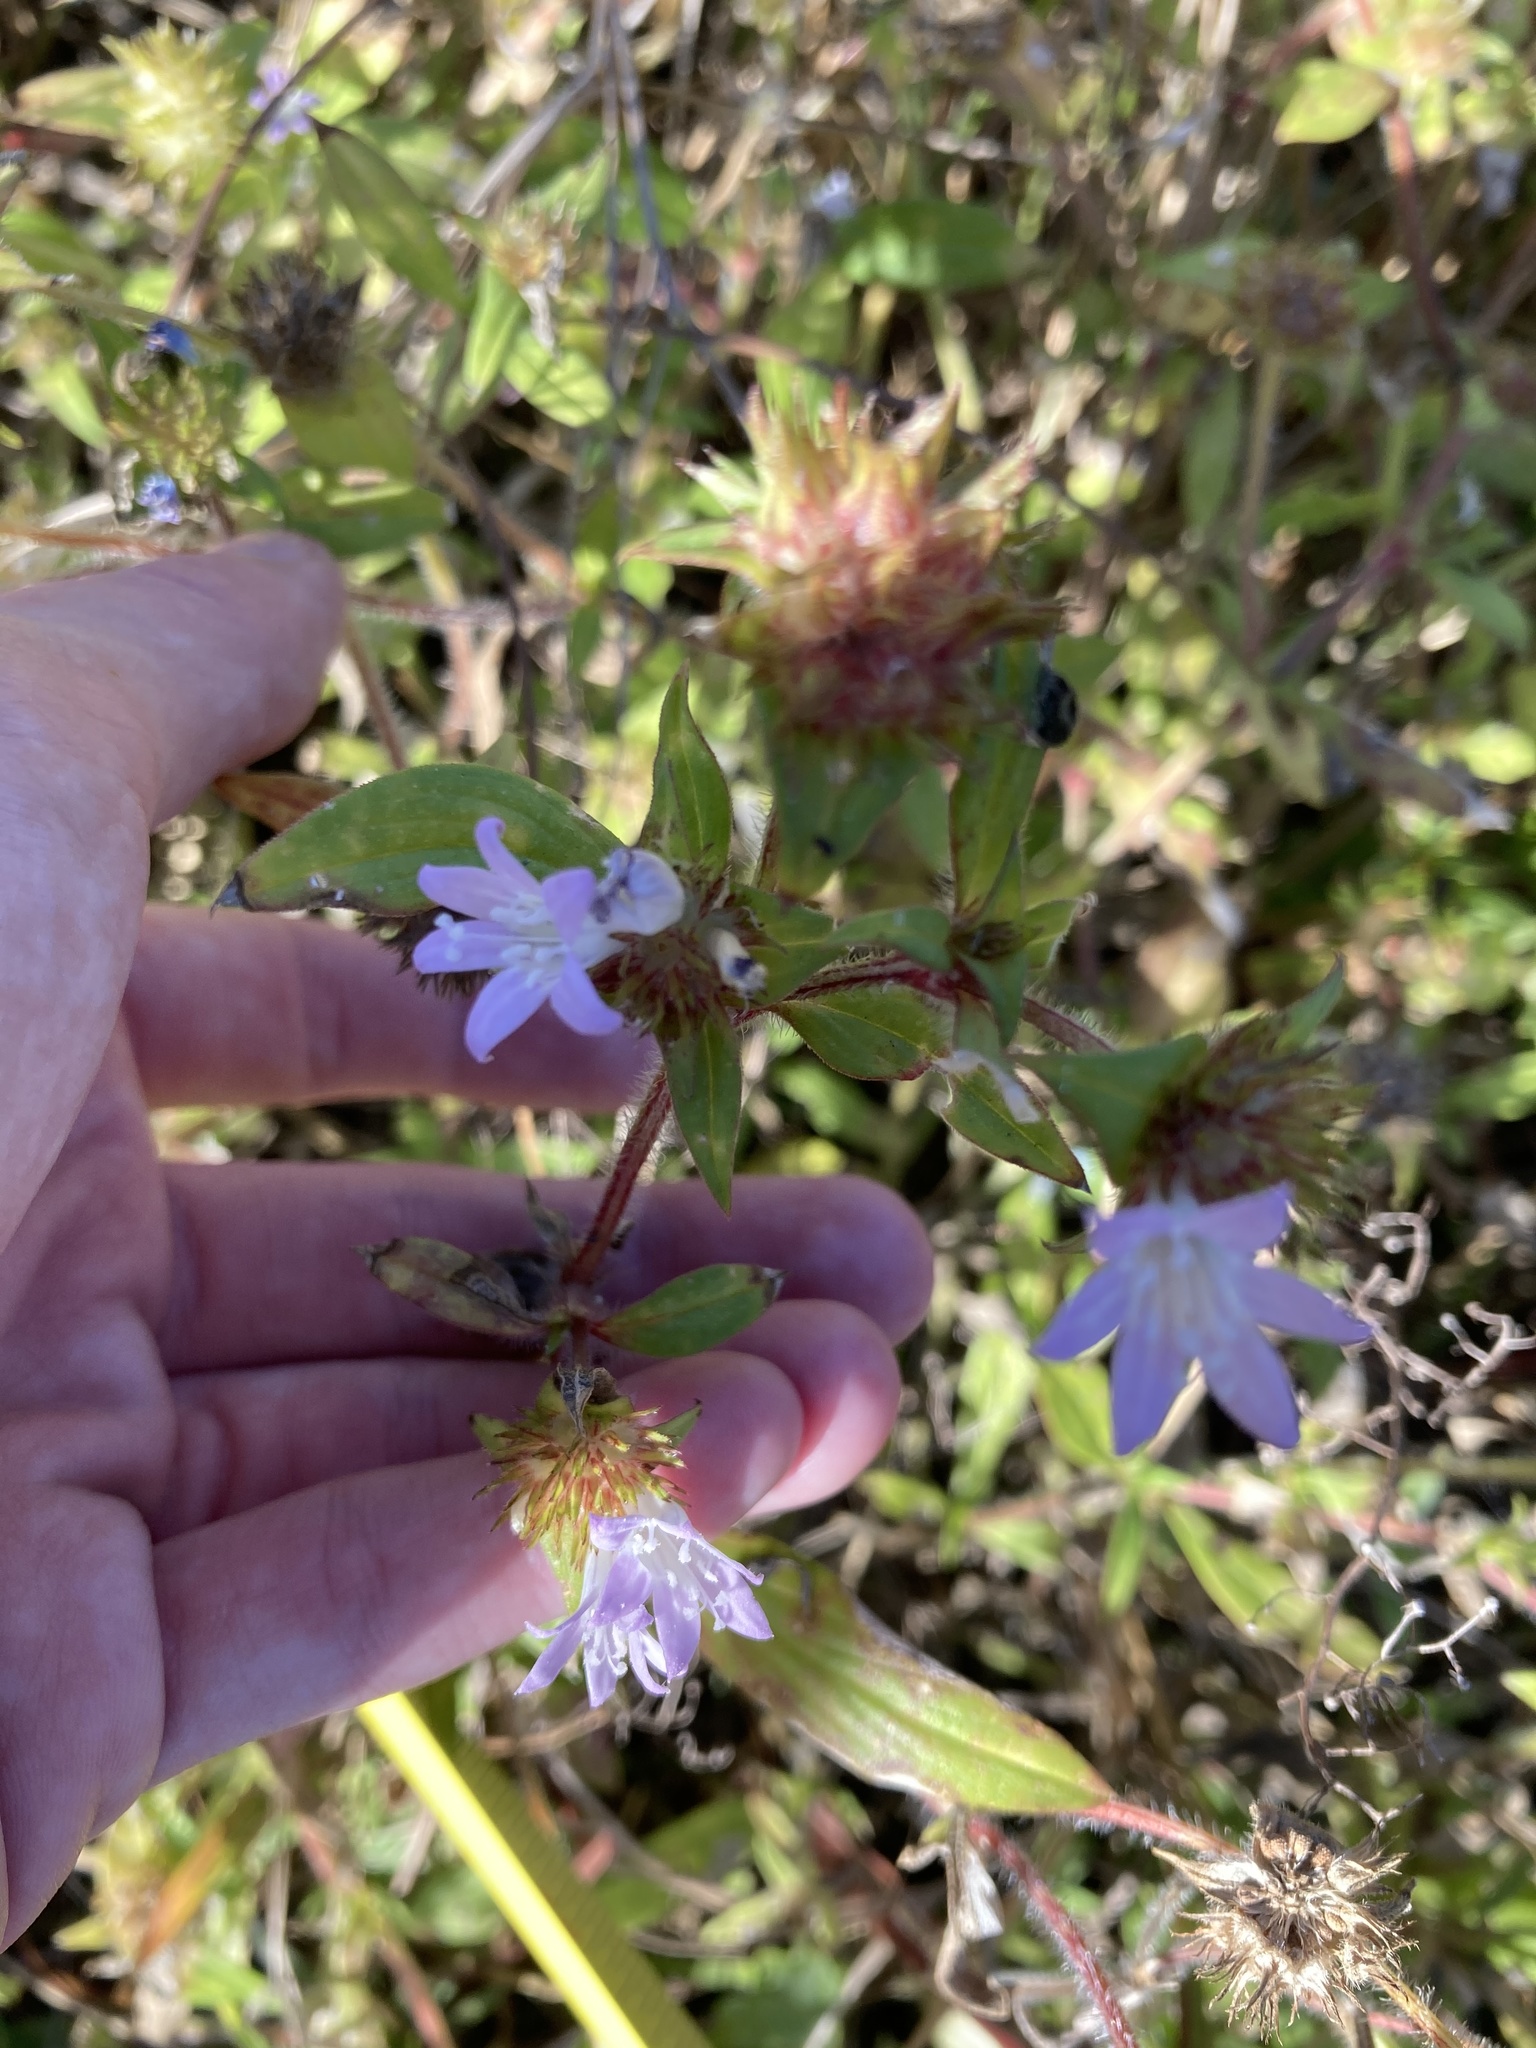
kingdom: Plantae
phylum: Tracheophyta
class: Magnoliopsida
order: Gentianales
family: Rubiaceae
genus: Richardia
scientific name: Richardia grandiflora
